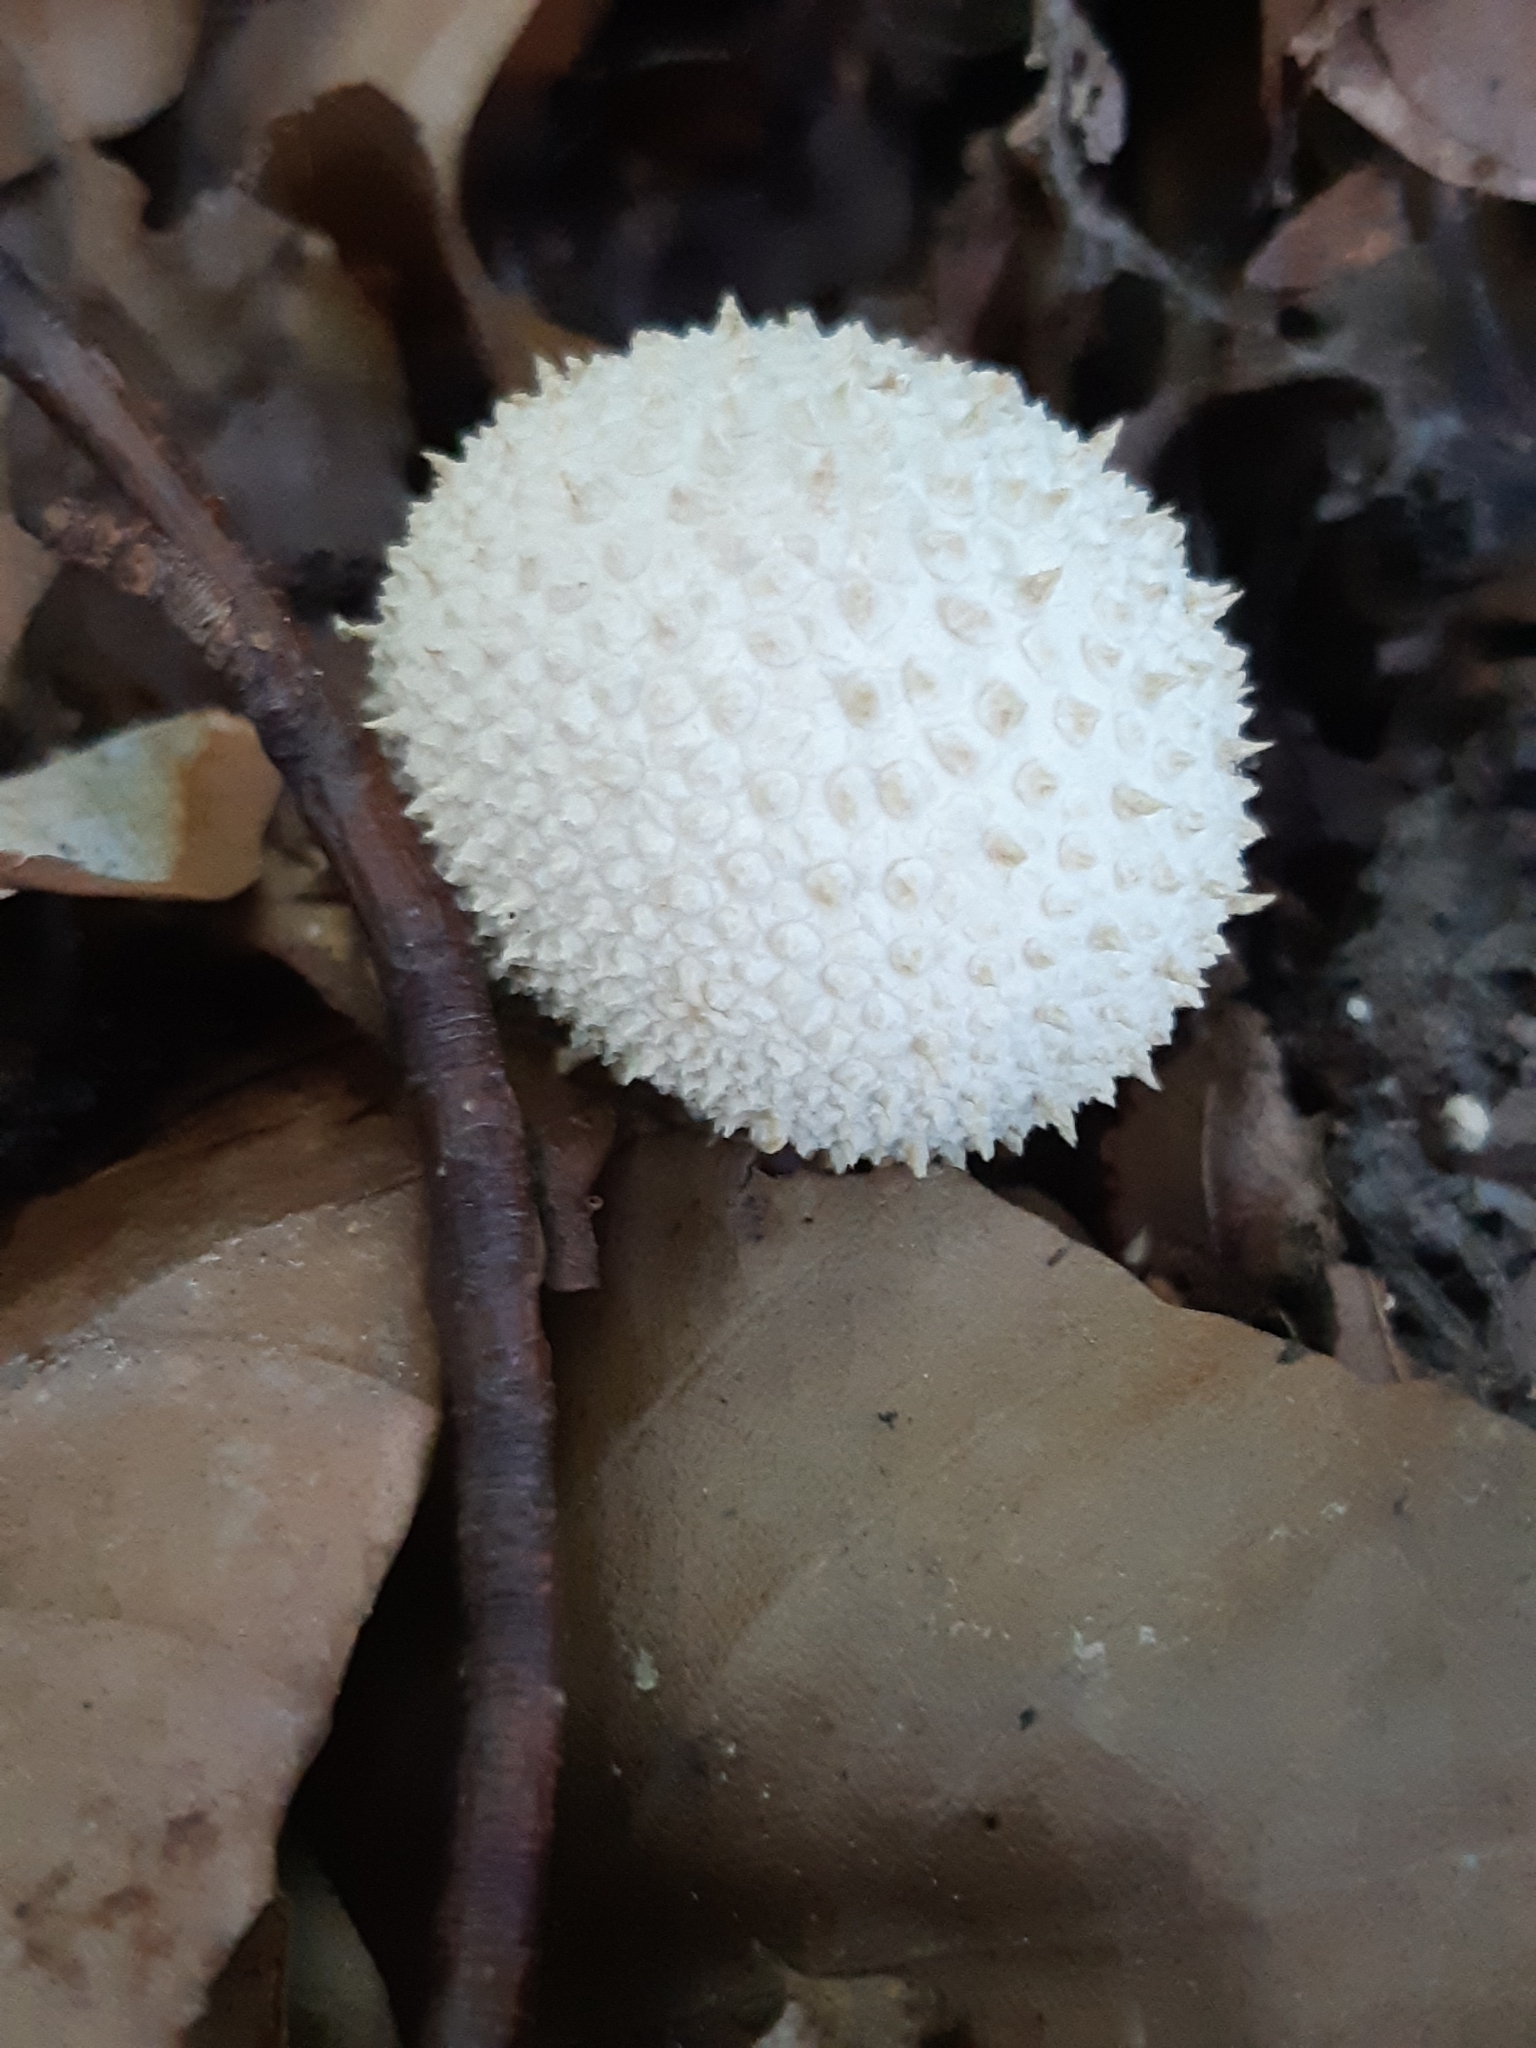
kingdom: Fungi
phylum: Basidiomycota
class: Agaricomycetes
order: Agaricales
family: Lycoperdaceae
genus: Lycoperdon
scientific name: Lycoperdon perlatum
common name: Common puffball
